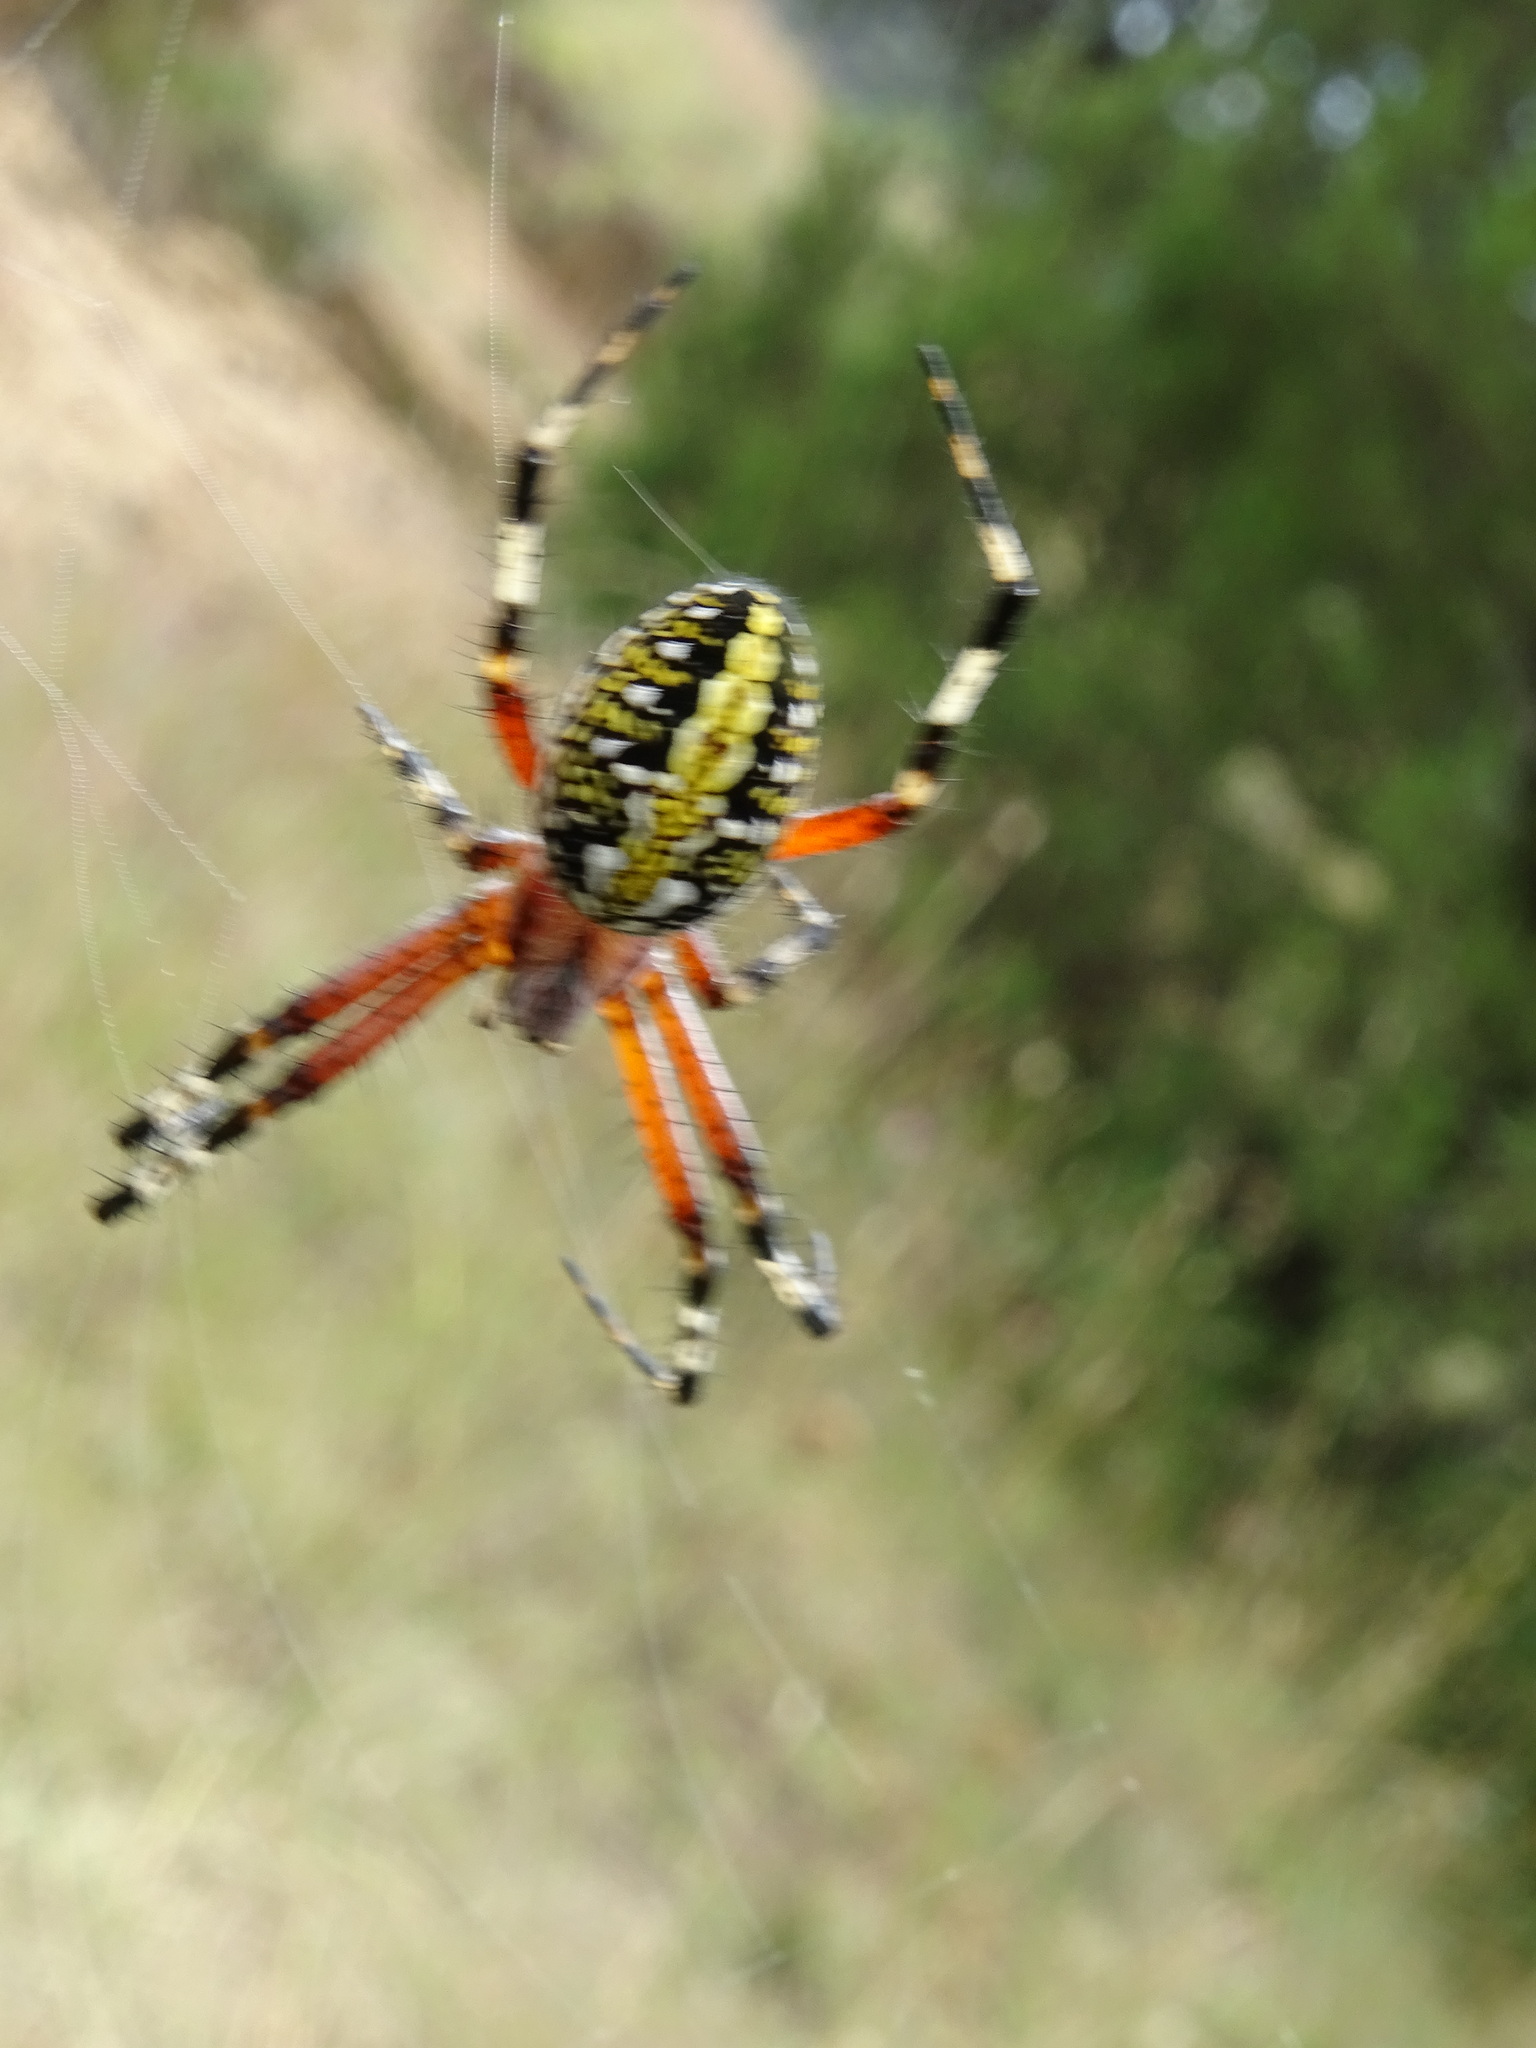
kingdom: Animalia
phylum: Arthropoda
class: Arachnida
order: Araneae
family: Araneidae
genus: Neoscona
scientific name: Neoscona oaxacensis
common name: Orb weavers
